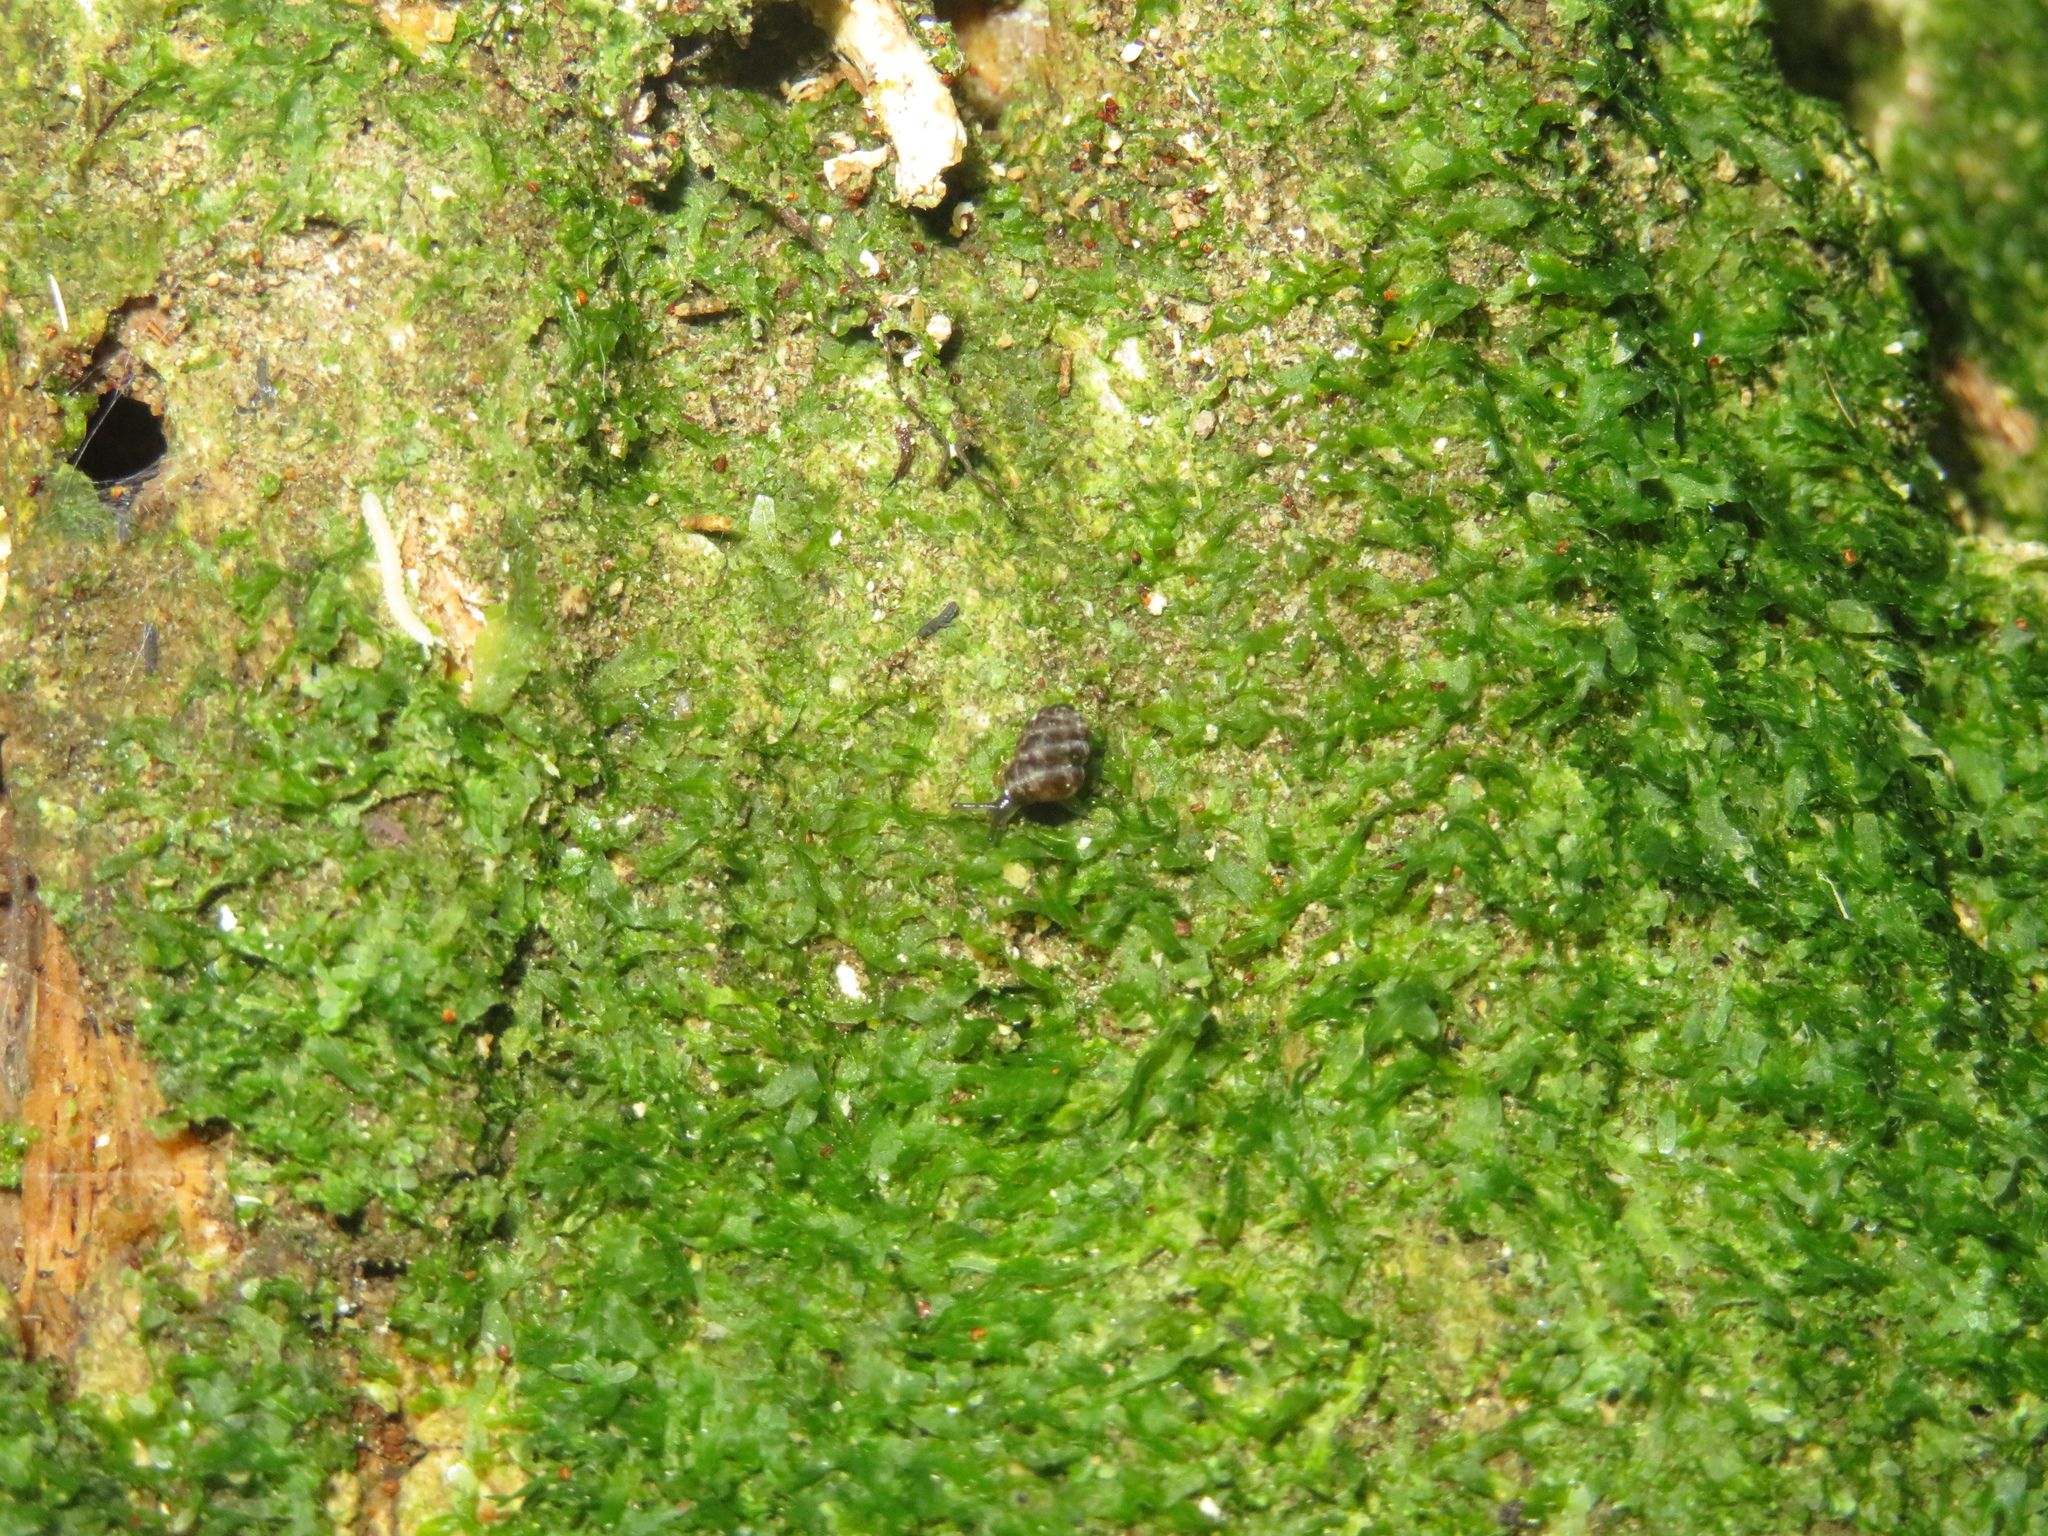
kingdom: Animalia
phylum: Mollusca
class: Gastropoda
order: Stylommatophora
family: Charopidae
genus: Phenacharopa
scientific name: Phenacharopa novoseelandica
